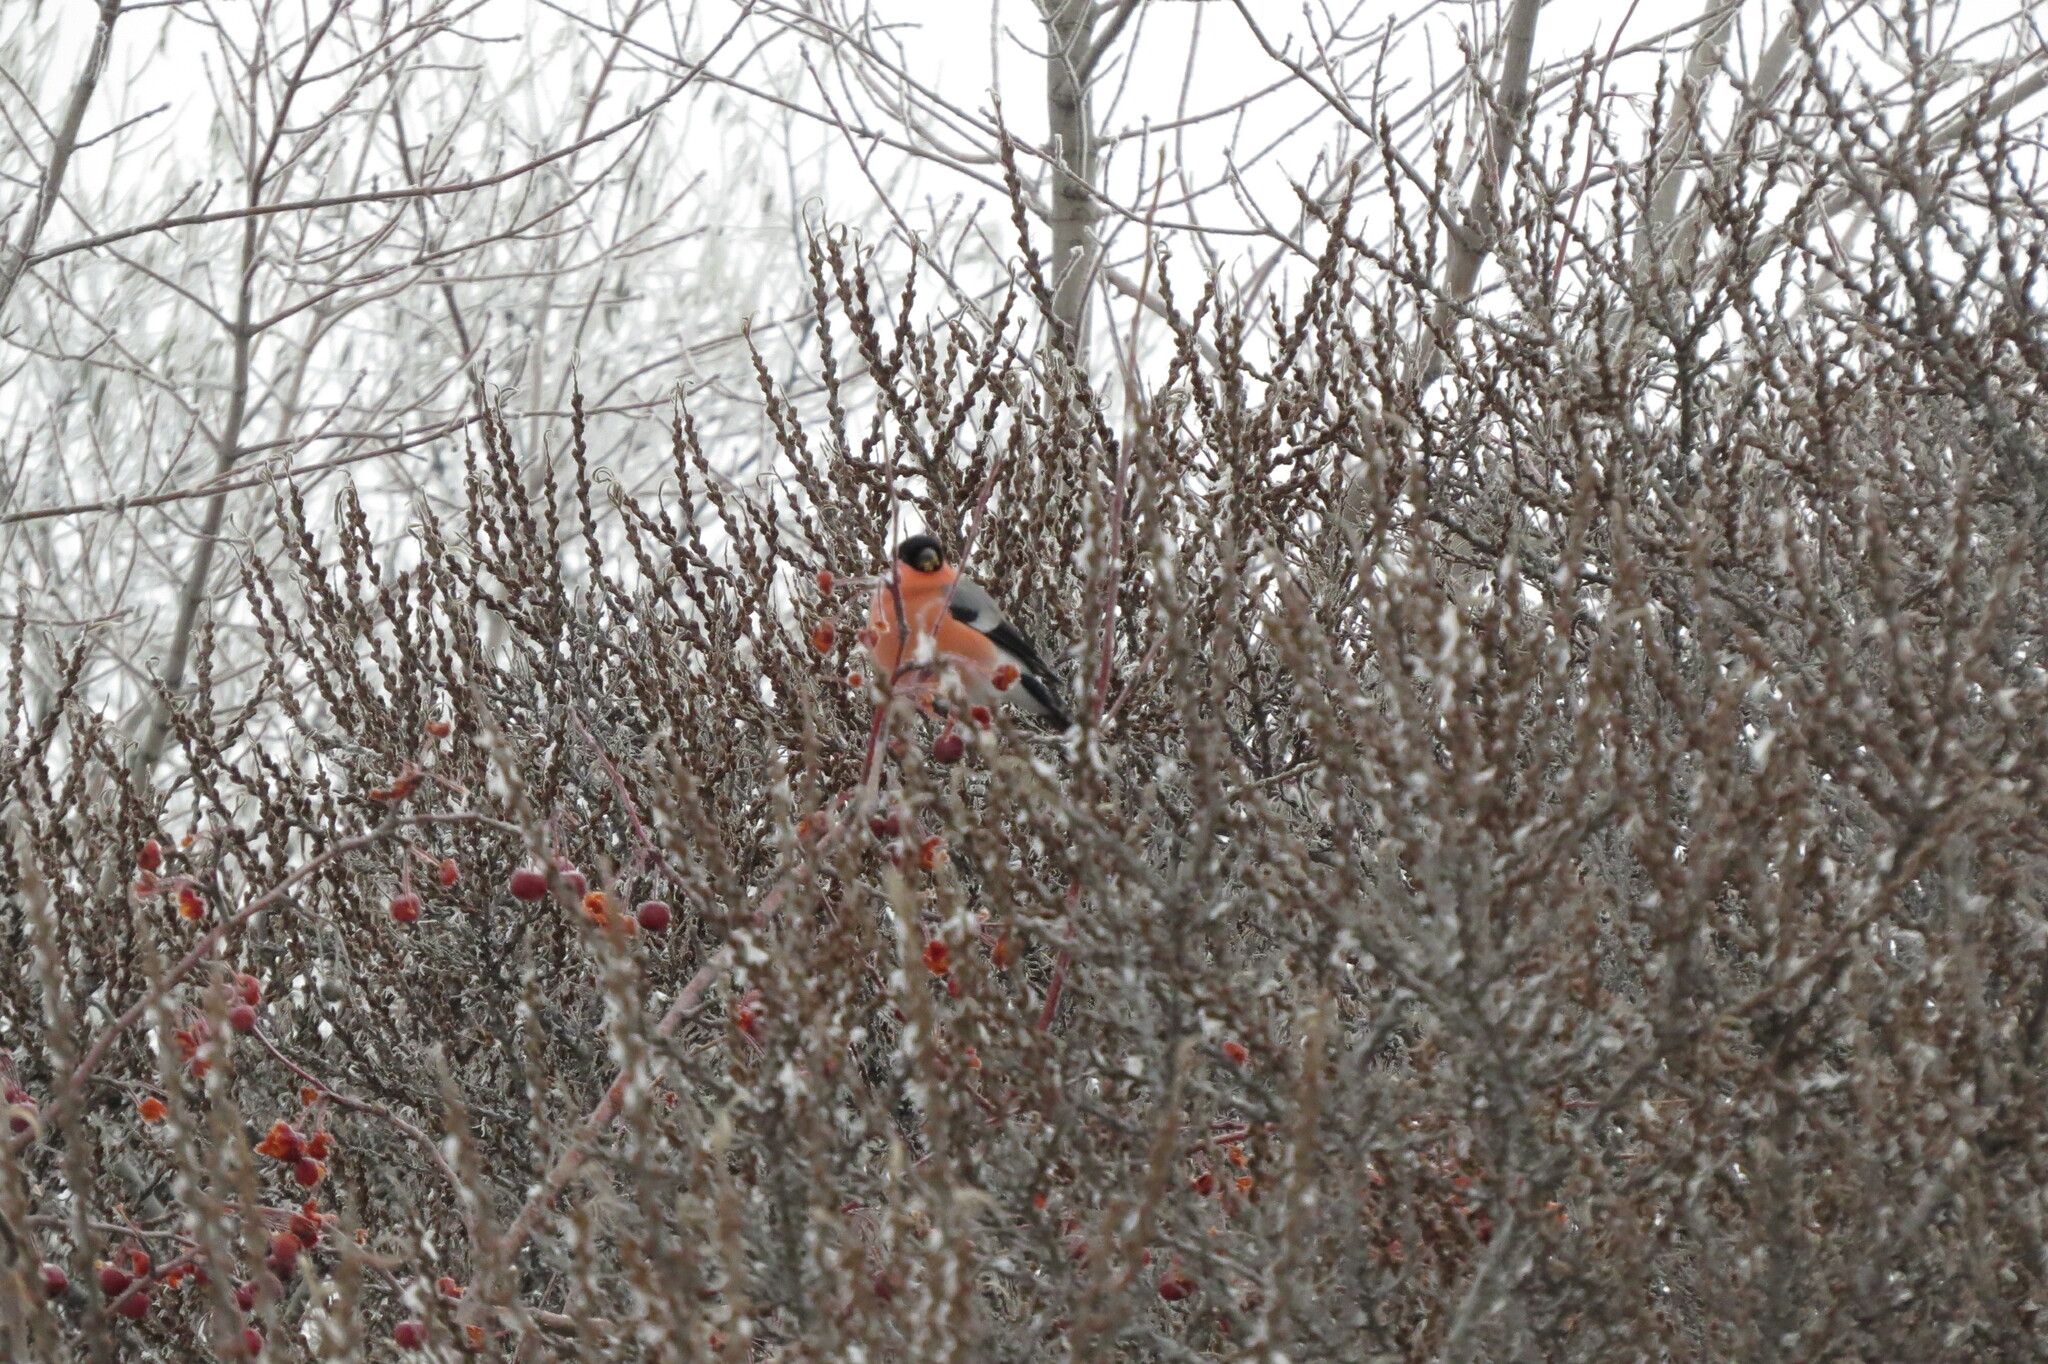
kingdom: Animalia
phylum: Chordata
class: Aves
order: Passeriformes
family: Fringillidae
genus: Pyrrhula
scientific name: Pyrrhula pyrrhula
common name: Eurasian bullfinch
